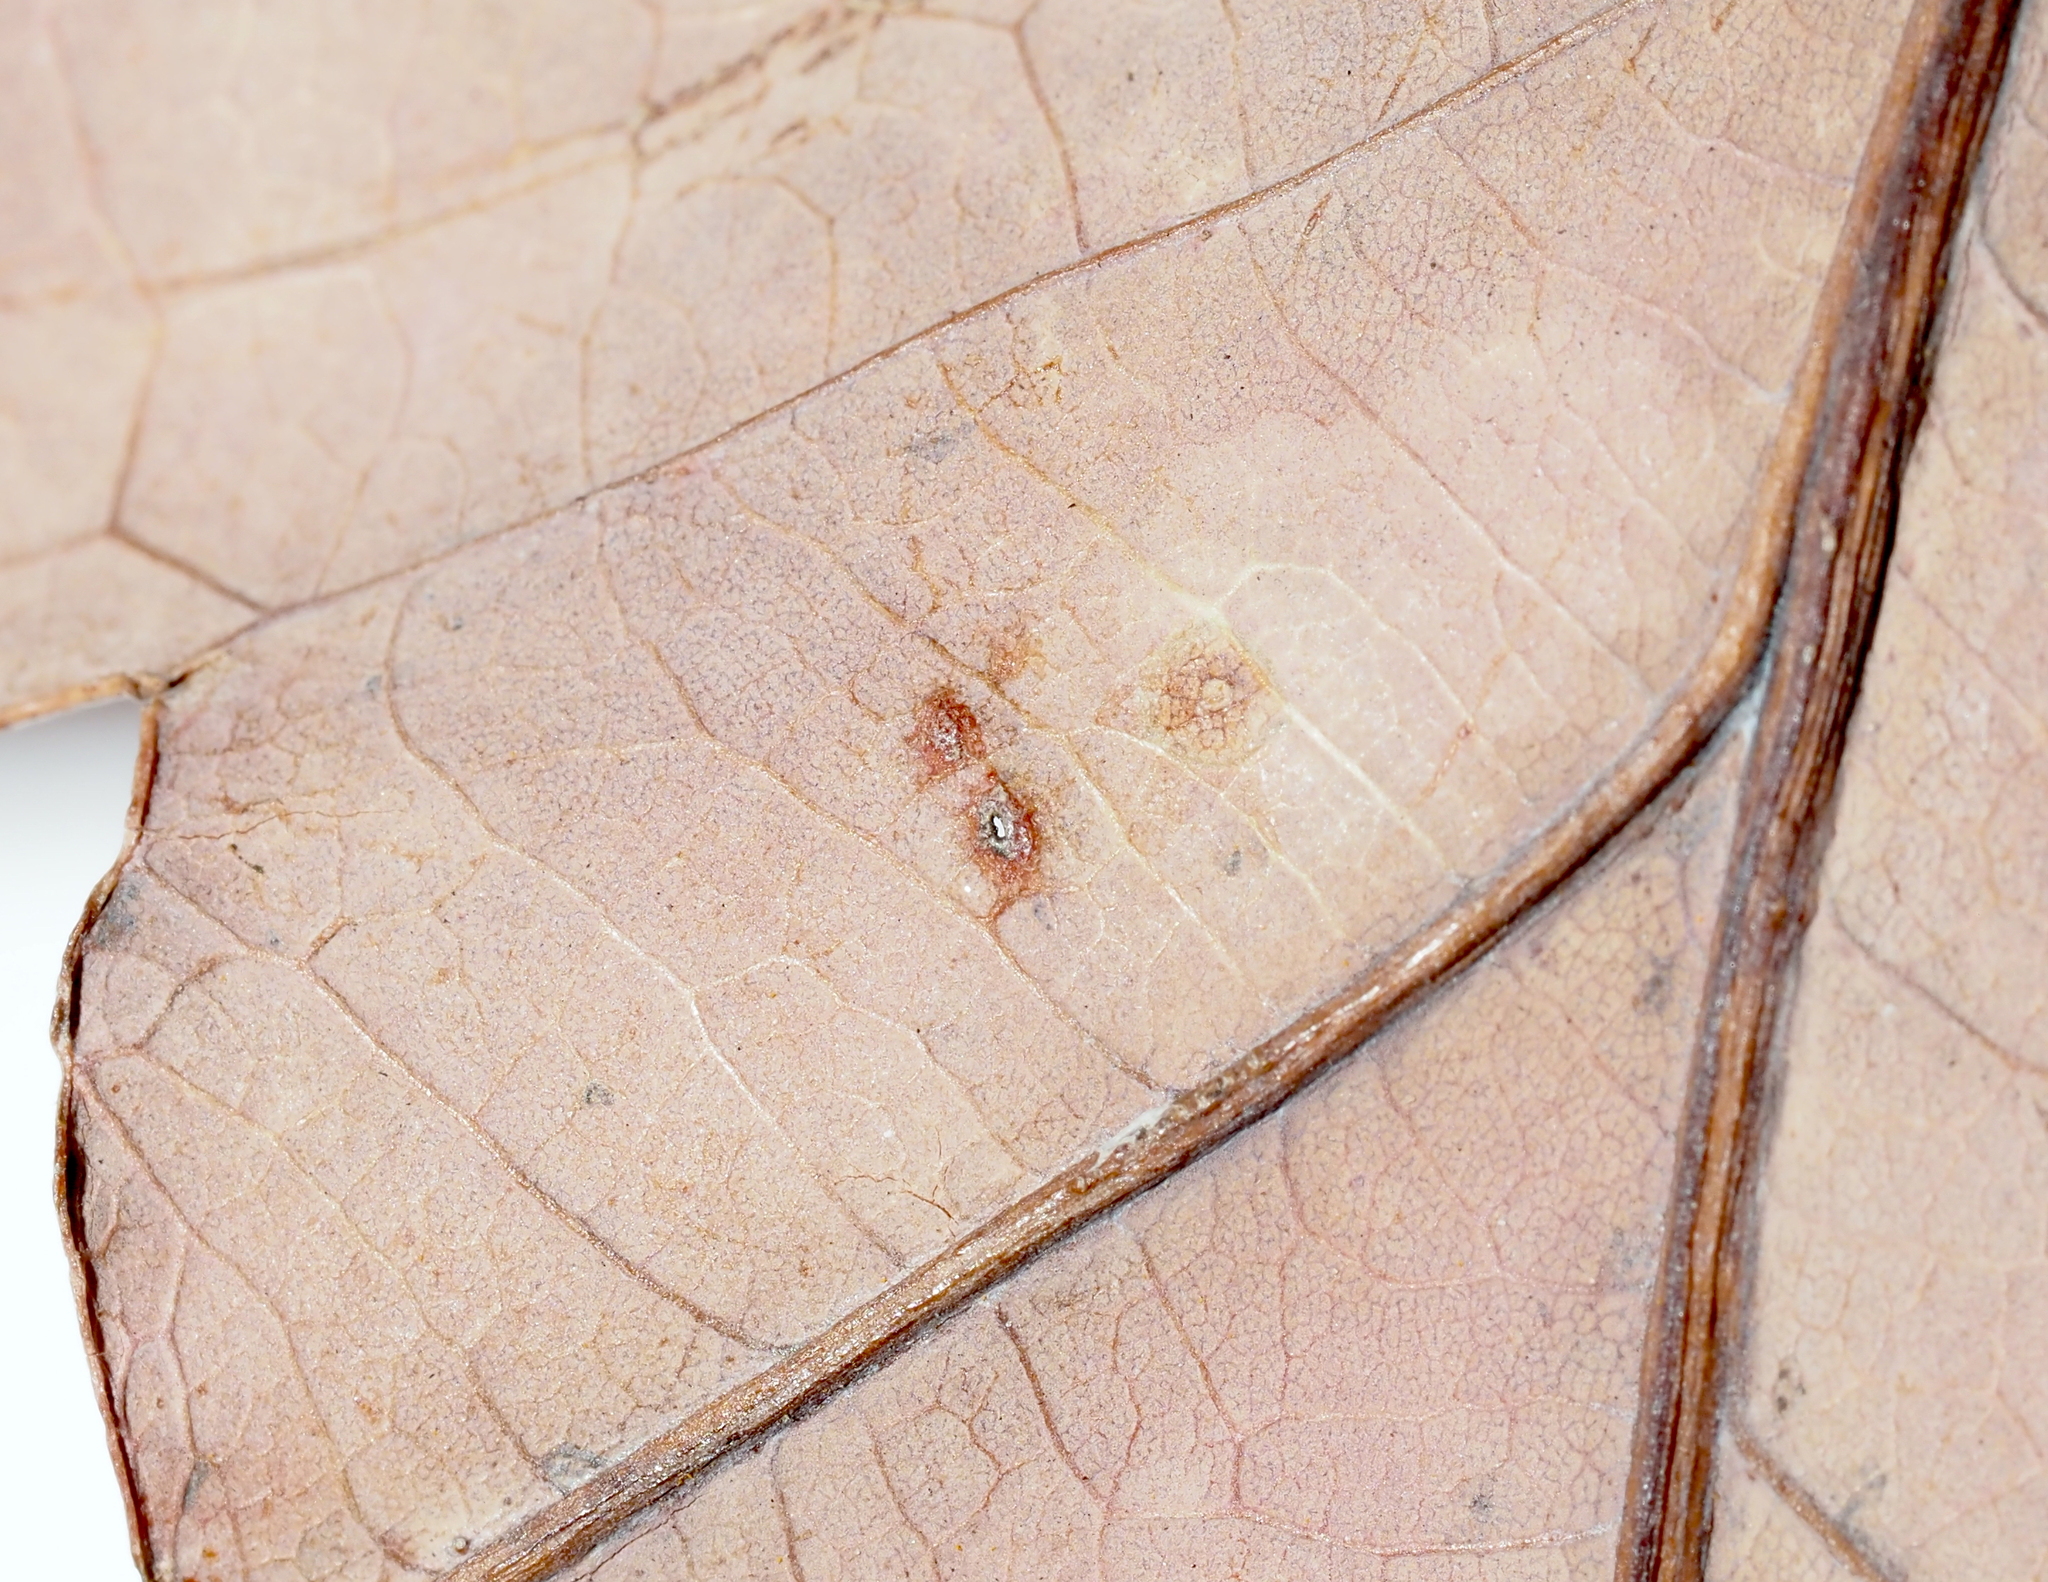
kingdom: Animalia
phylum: Arthropoda
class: Insecta
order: Hymenoptera
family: Cynipidae
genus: Neuroterus
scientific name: Neuroterus quercusverrucarum
